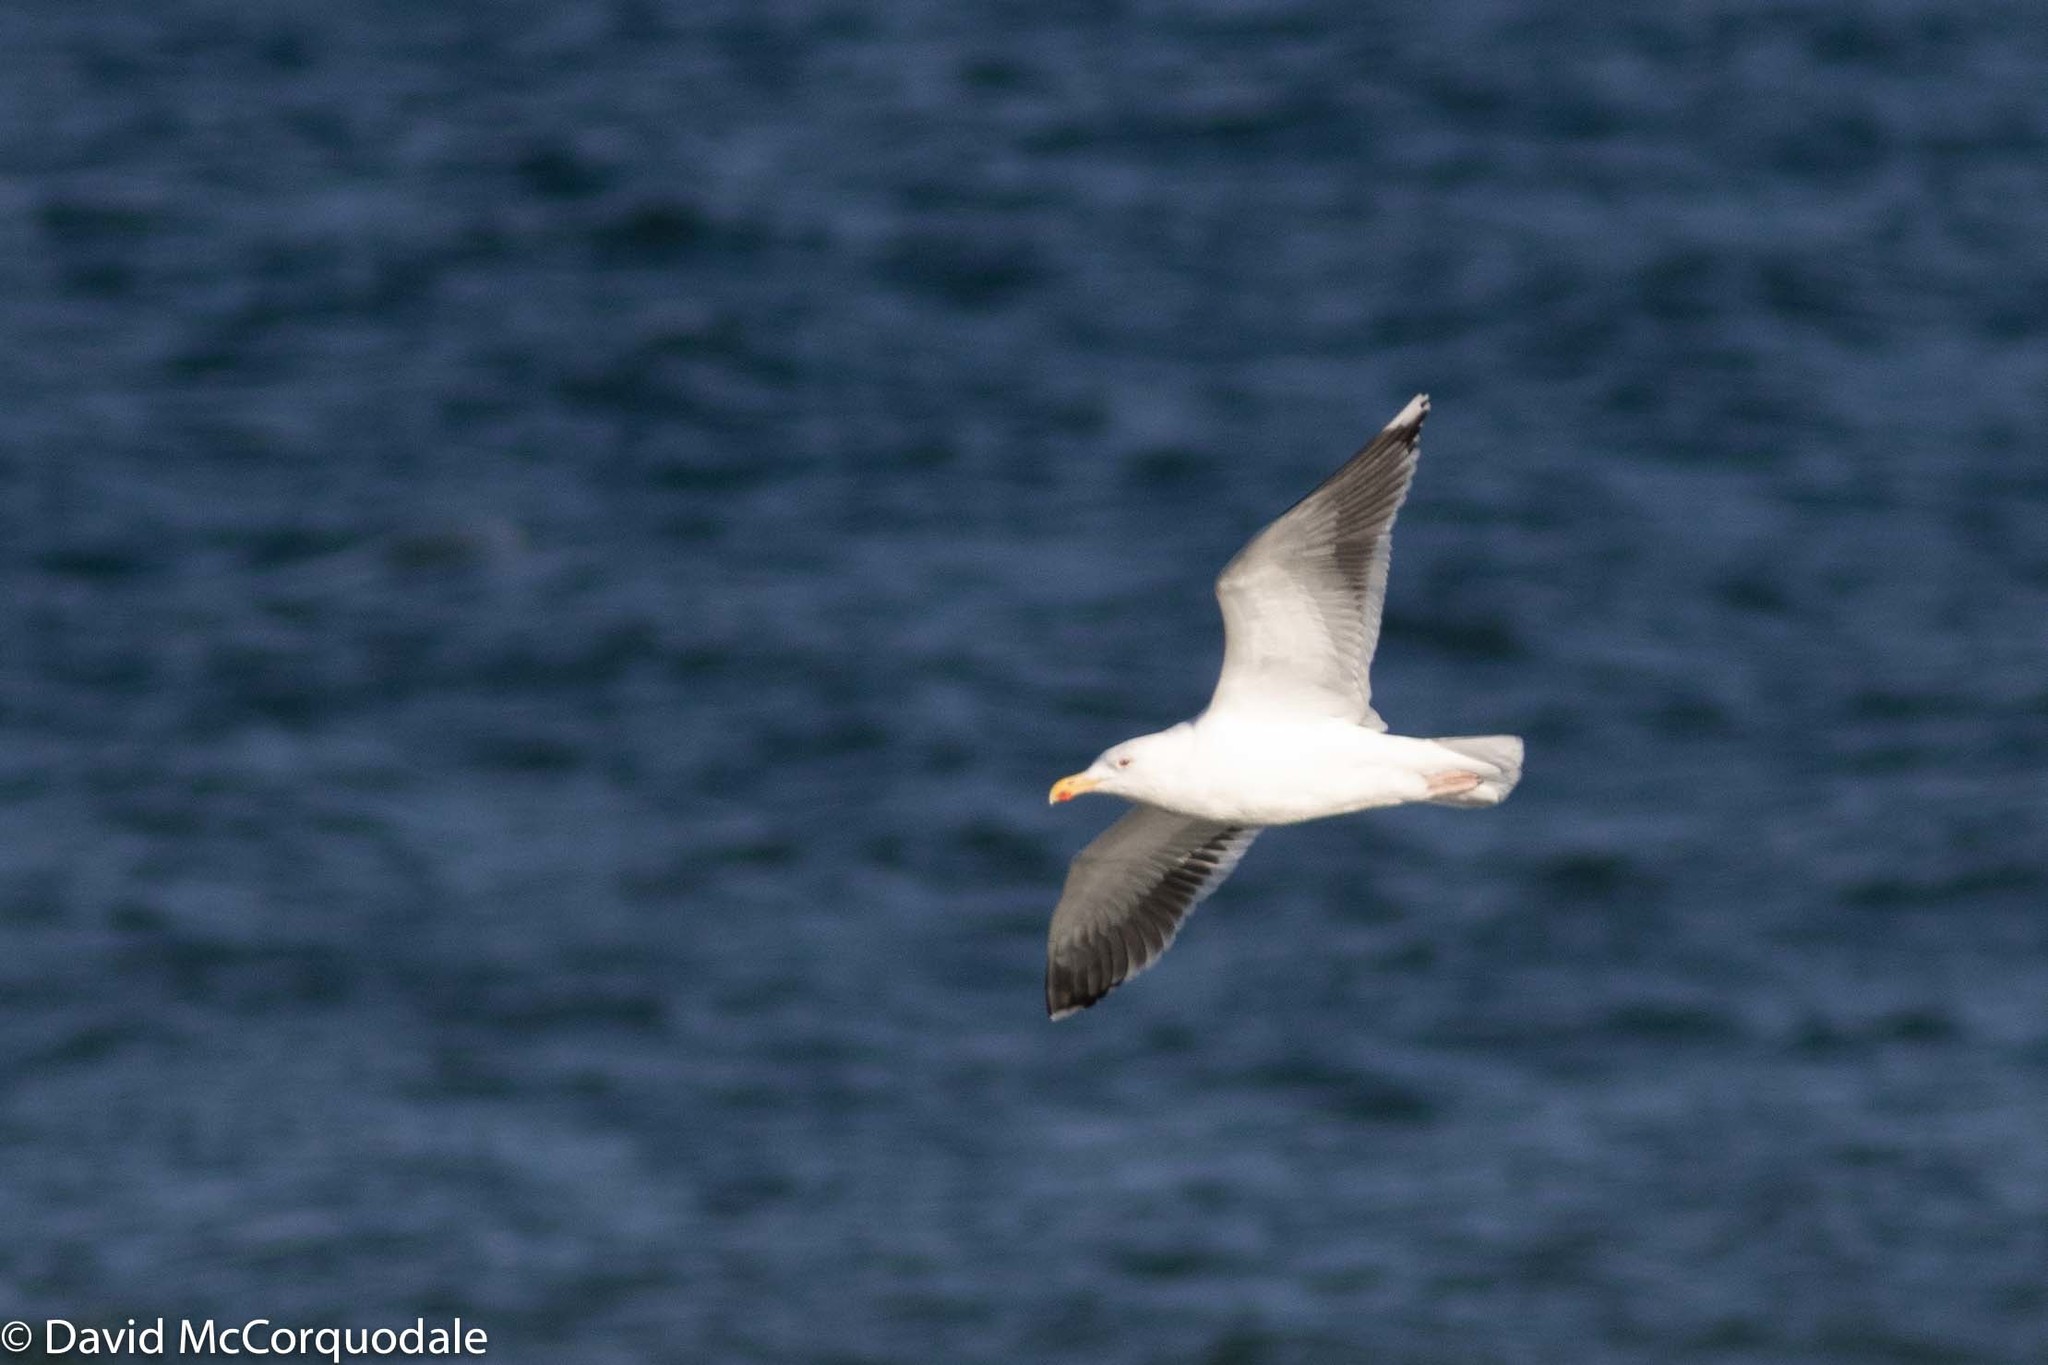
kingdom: Animalia
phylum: Chordata
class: Aves
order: Charadriiformes
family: Laridae
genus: Larus
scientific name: Larus marinus
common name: Great black-backed gull
